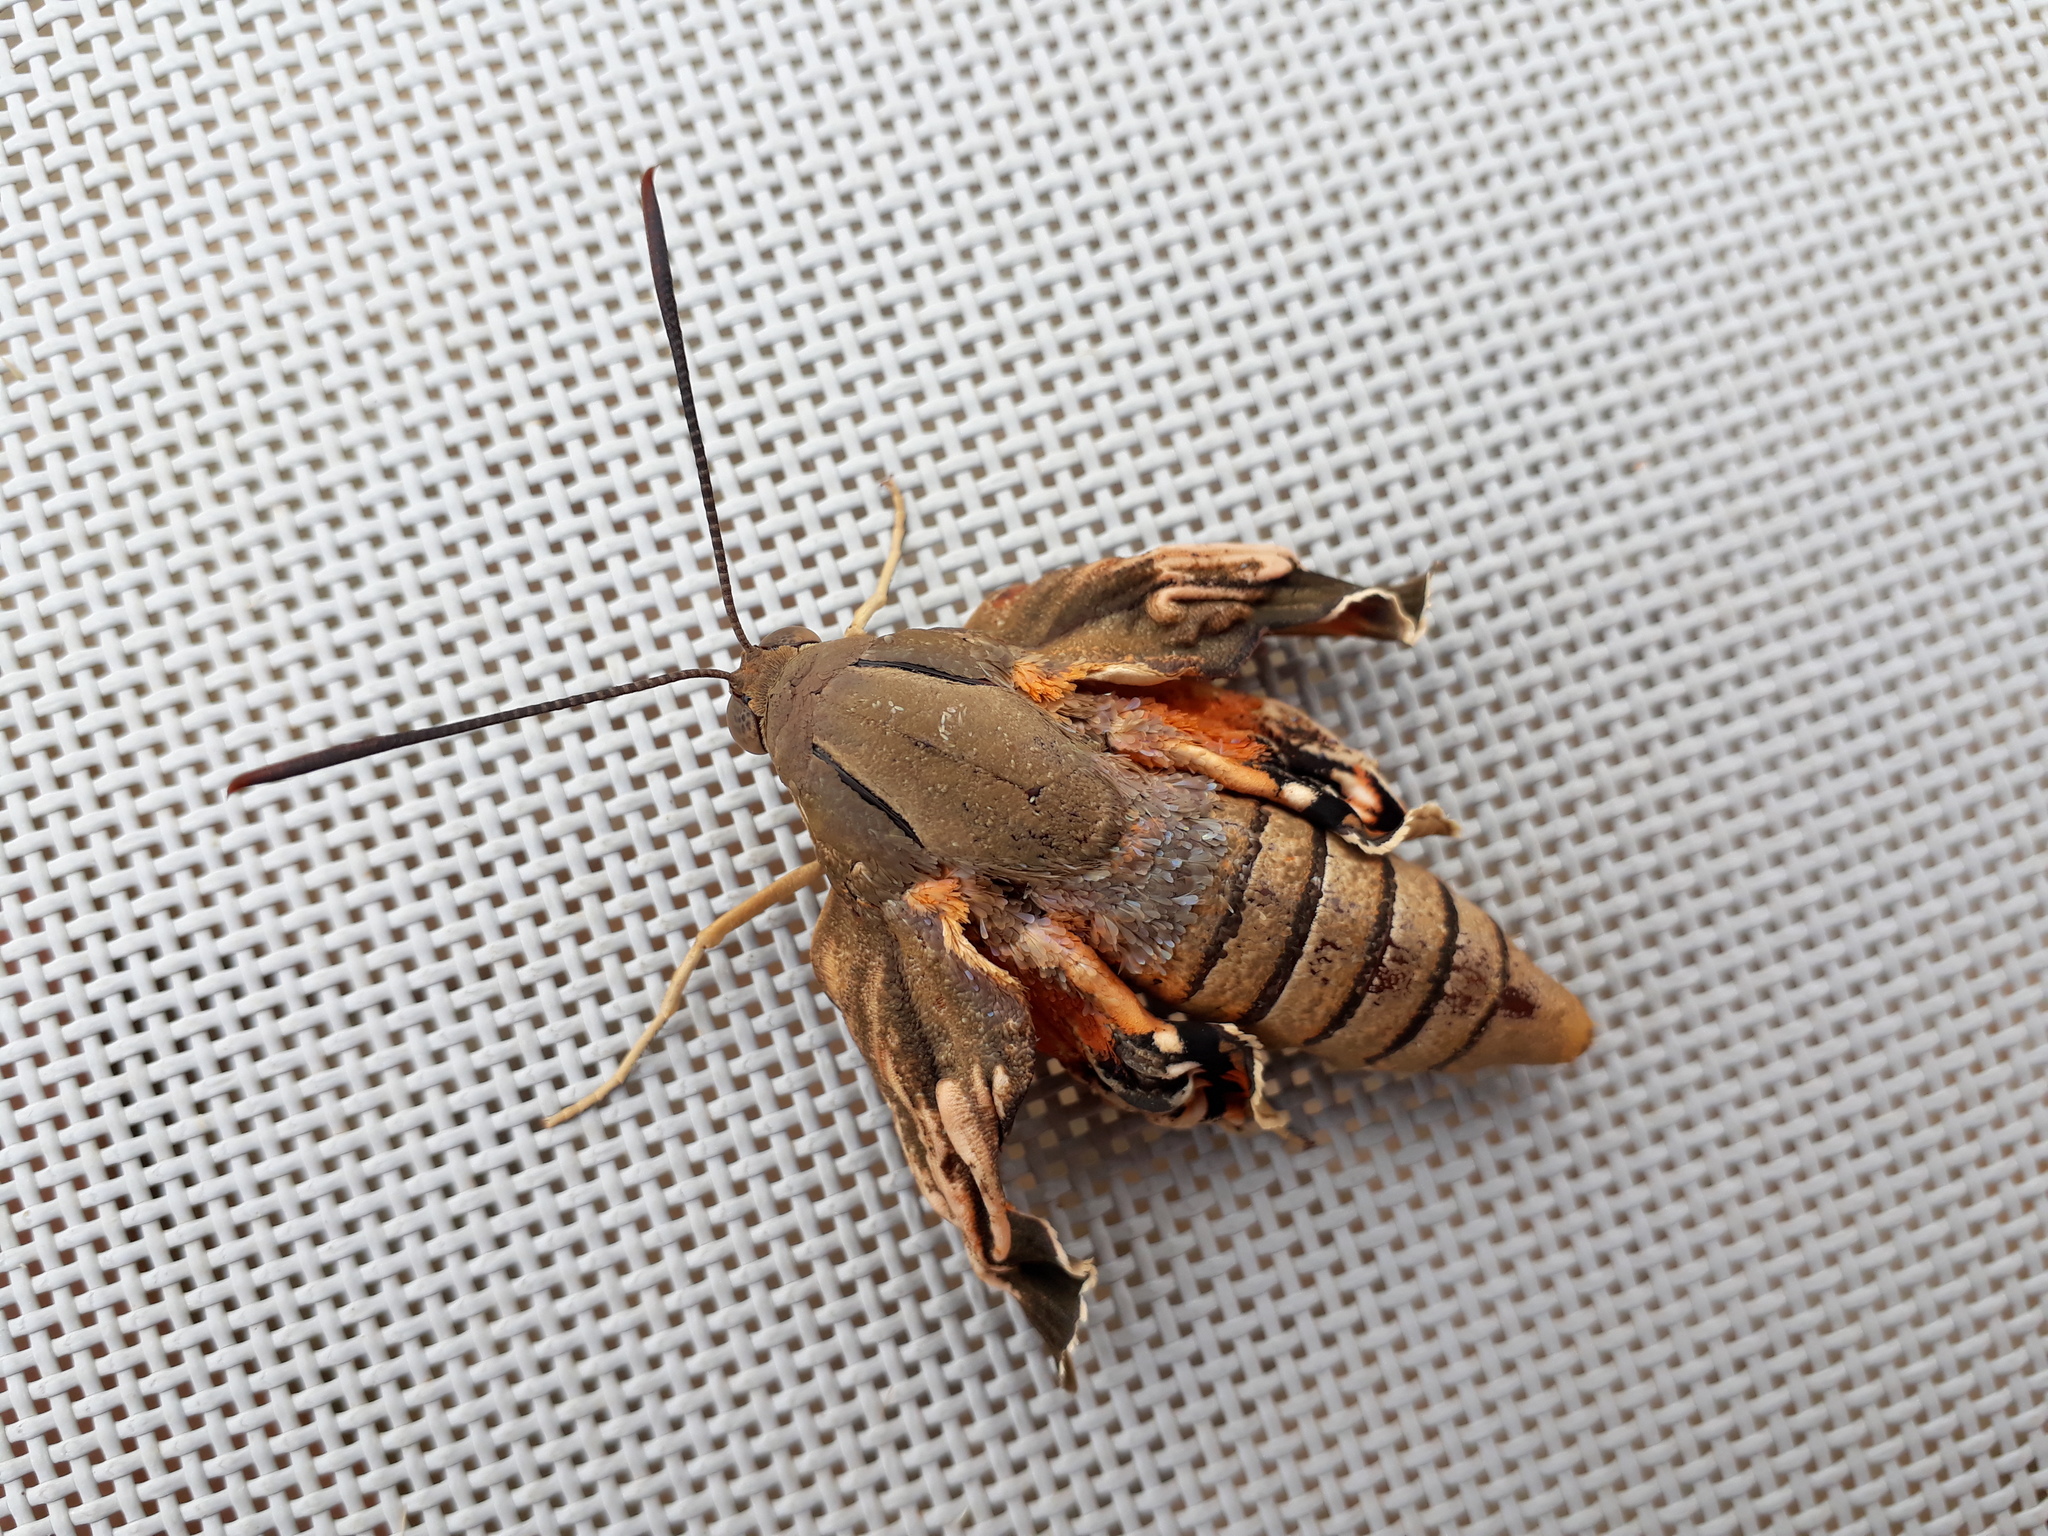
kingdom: Animalia
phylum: Arthropoda
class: Insecta
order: Lepidoptera
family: Castniidae
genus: Paysandisia
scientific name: Paysandisia archon
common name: Palm moth
